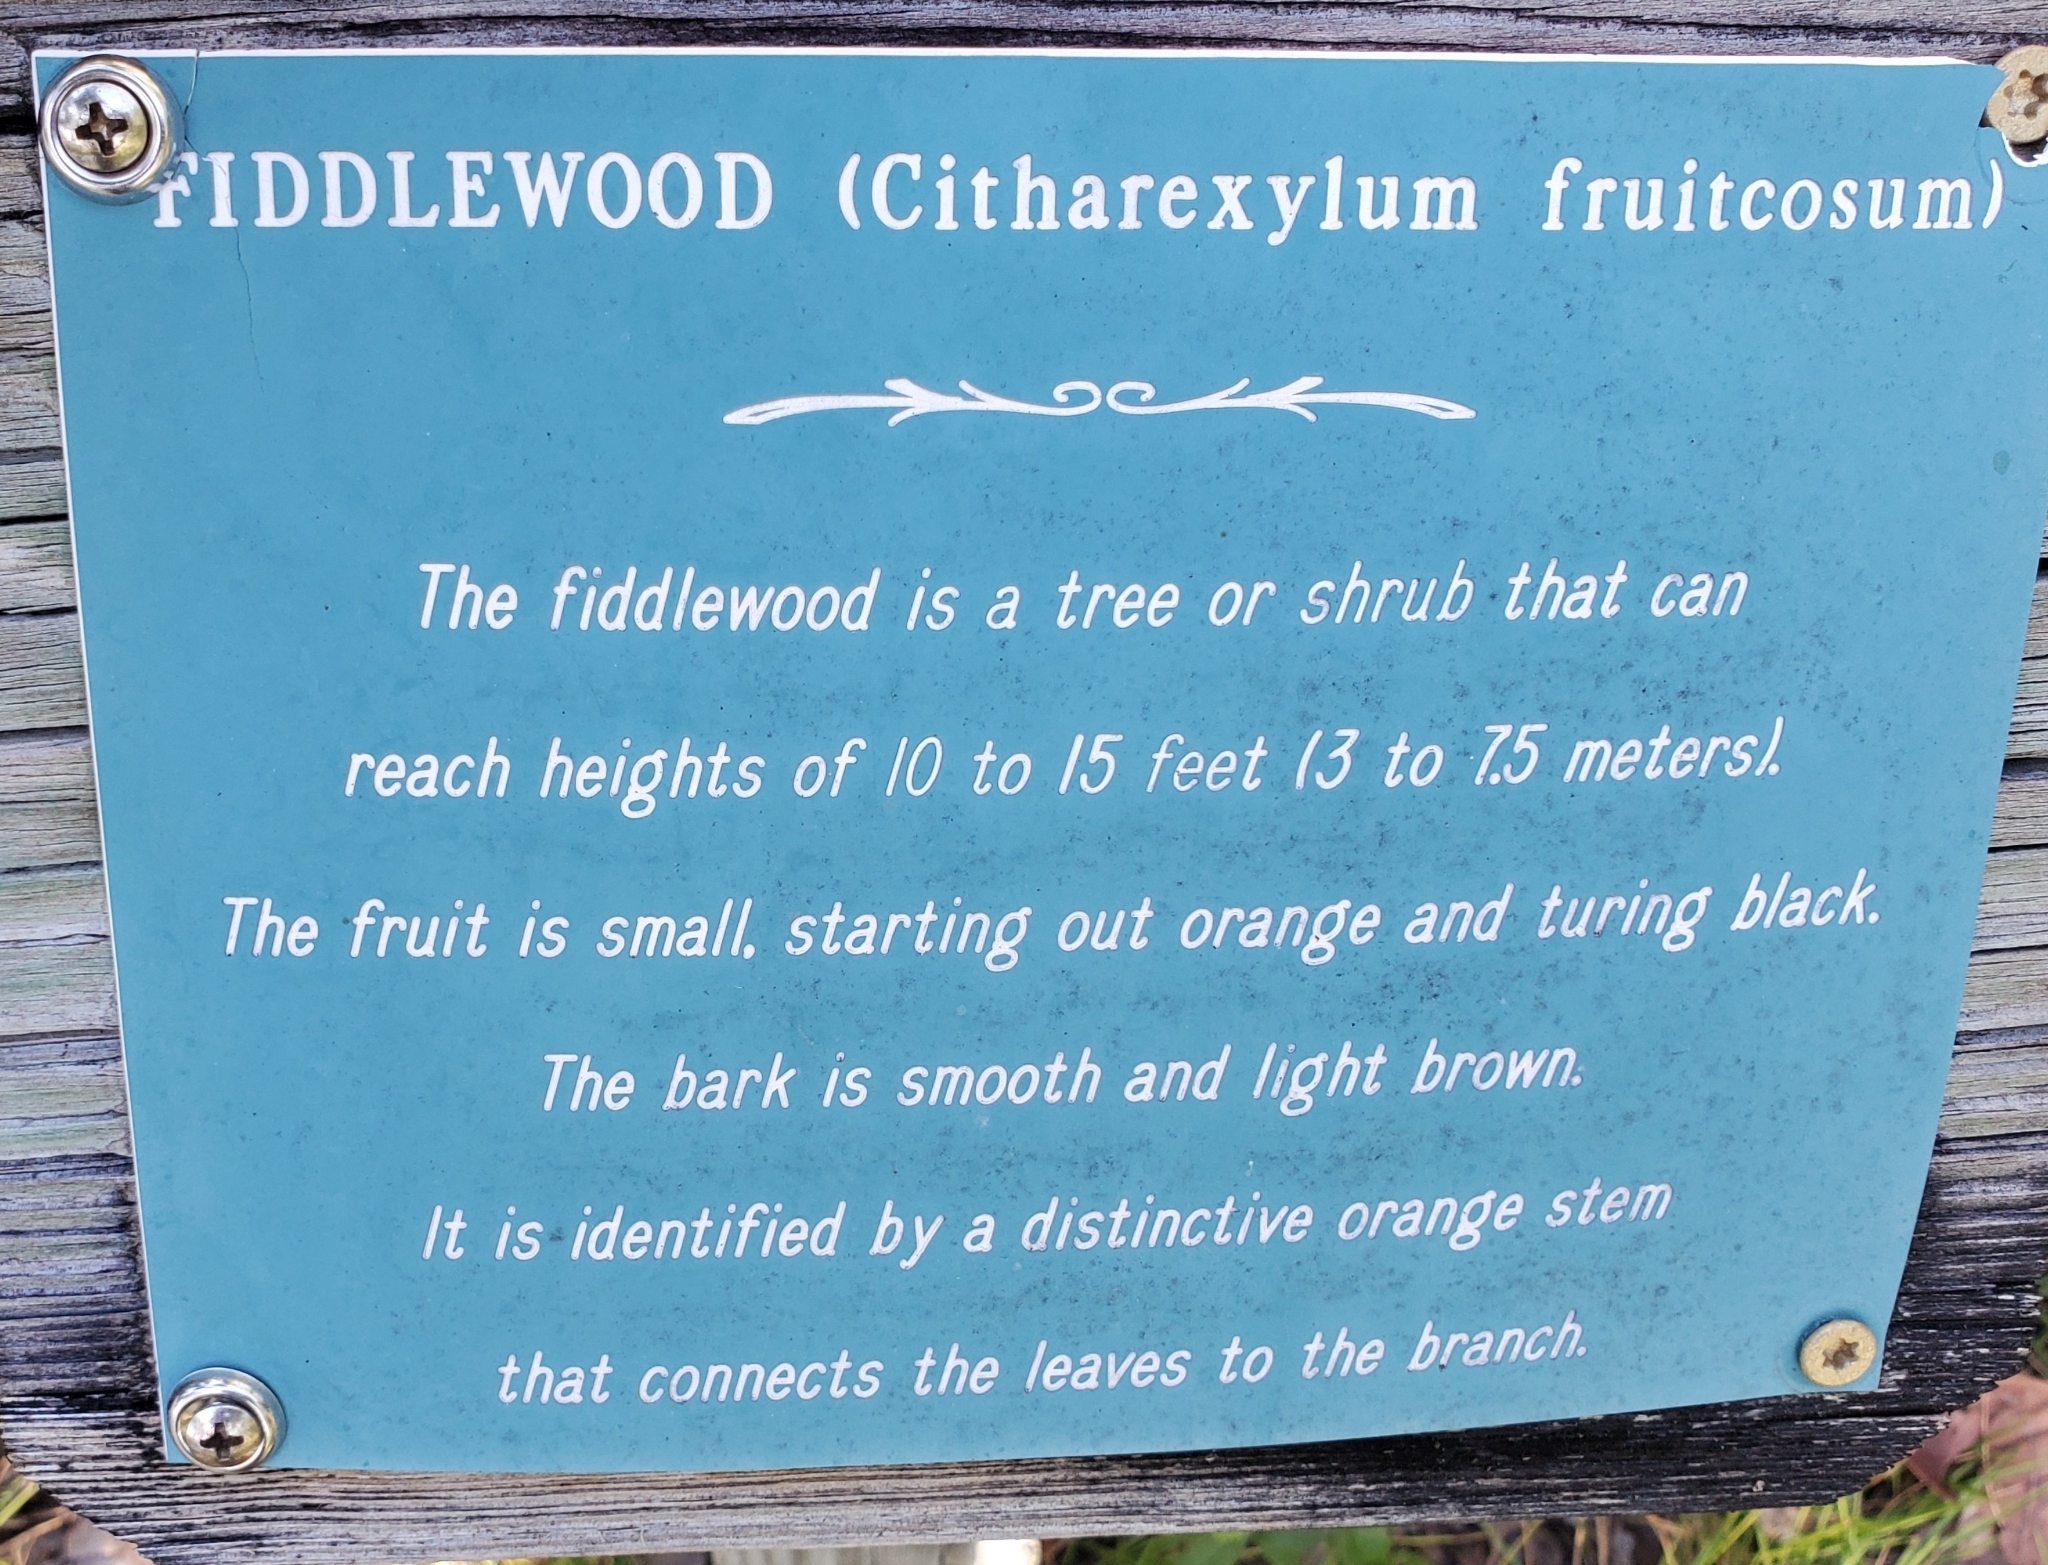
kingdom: Plantae
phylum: Tracheophyta
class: Magnoliopsida
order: Lamiales
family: Verbenaceae
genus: Citharexylum
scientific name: Citharexylum spinosum
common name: Fiddlewood
